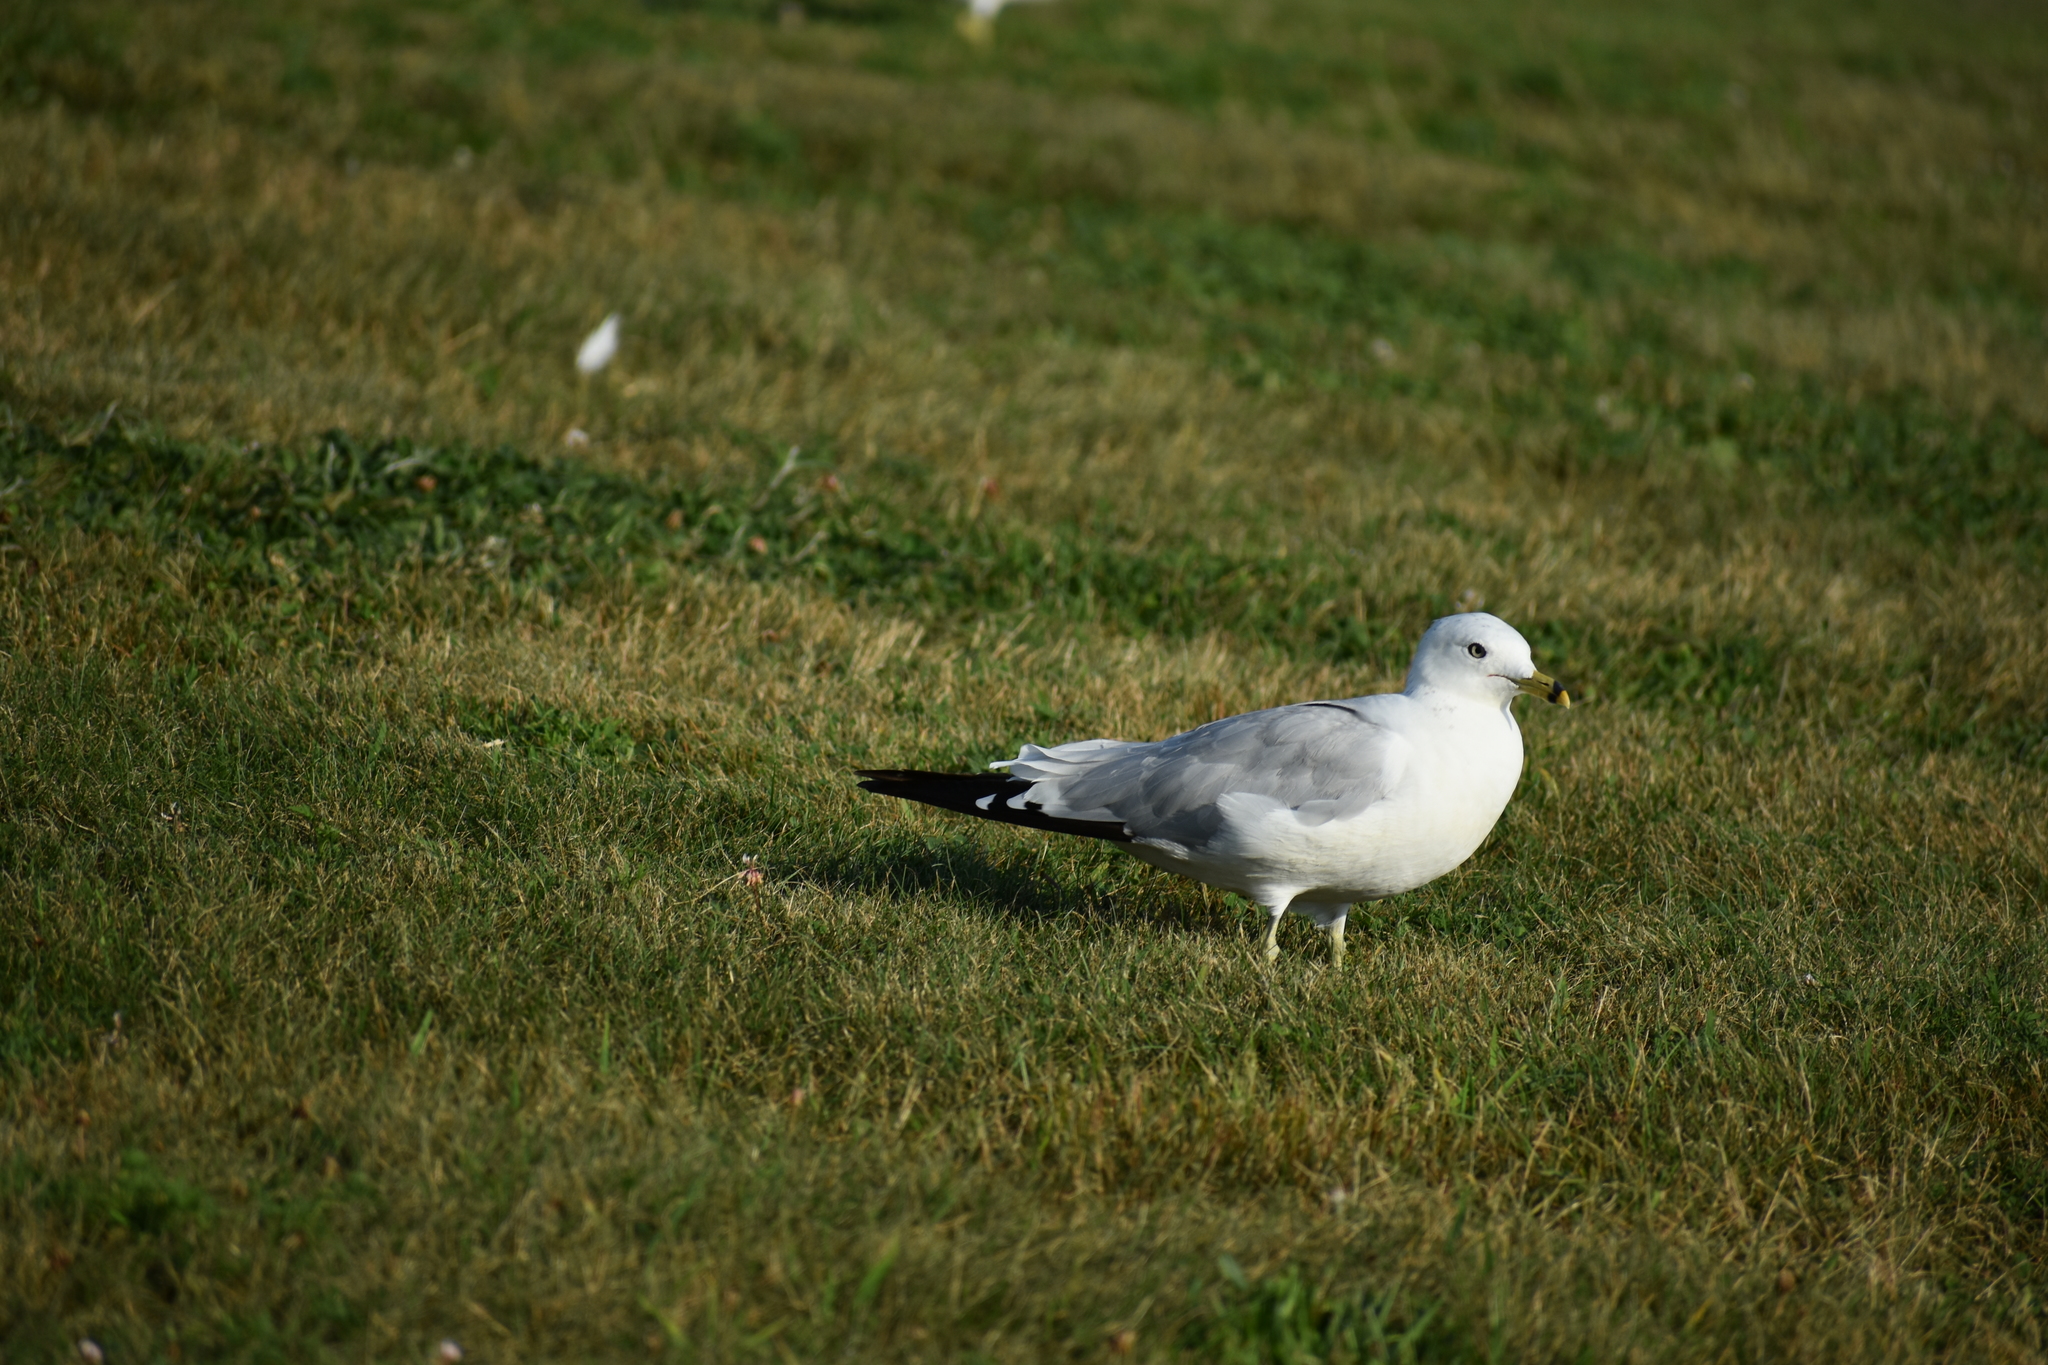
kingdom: Animalia
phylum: Chordata
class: Aves
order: Charadriiformes
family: Laridae
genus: Larus
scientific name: Larus delawarensis
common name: Ring-billed gull
